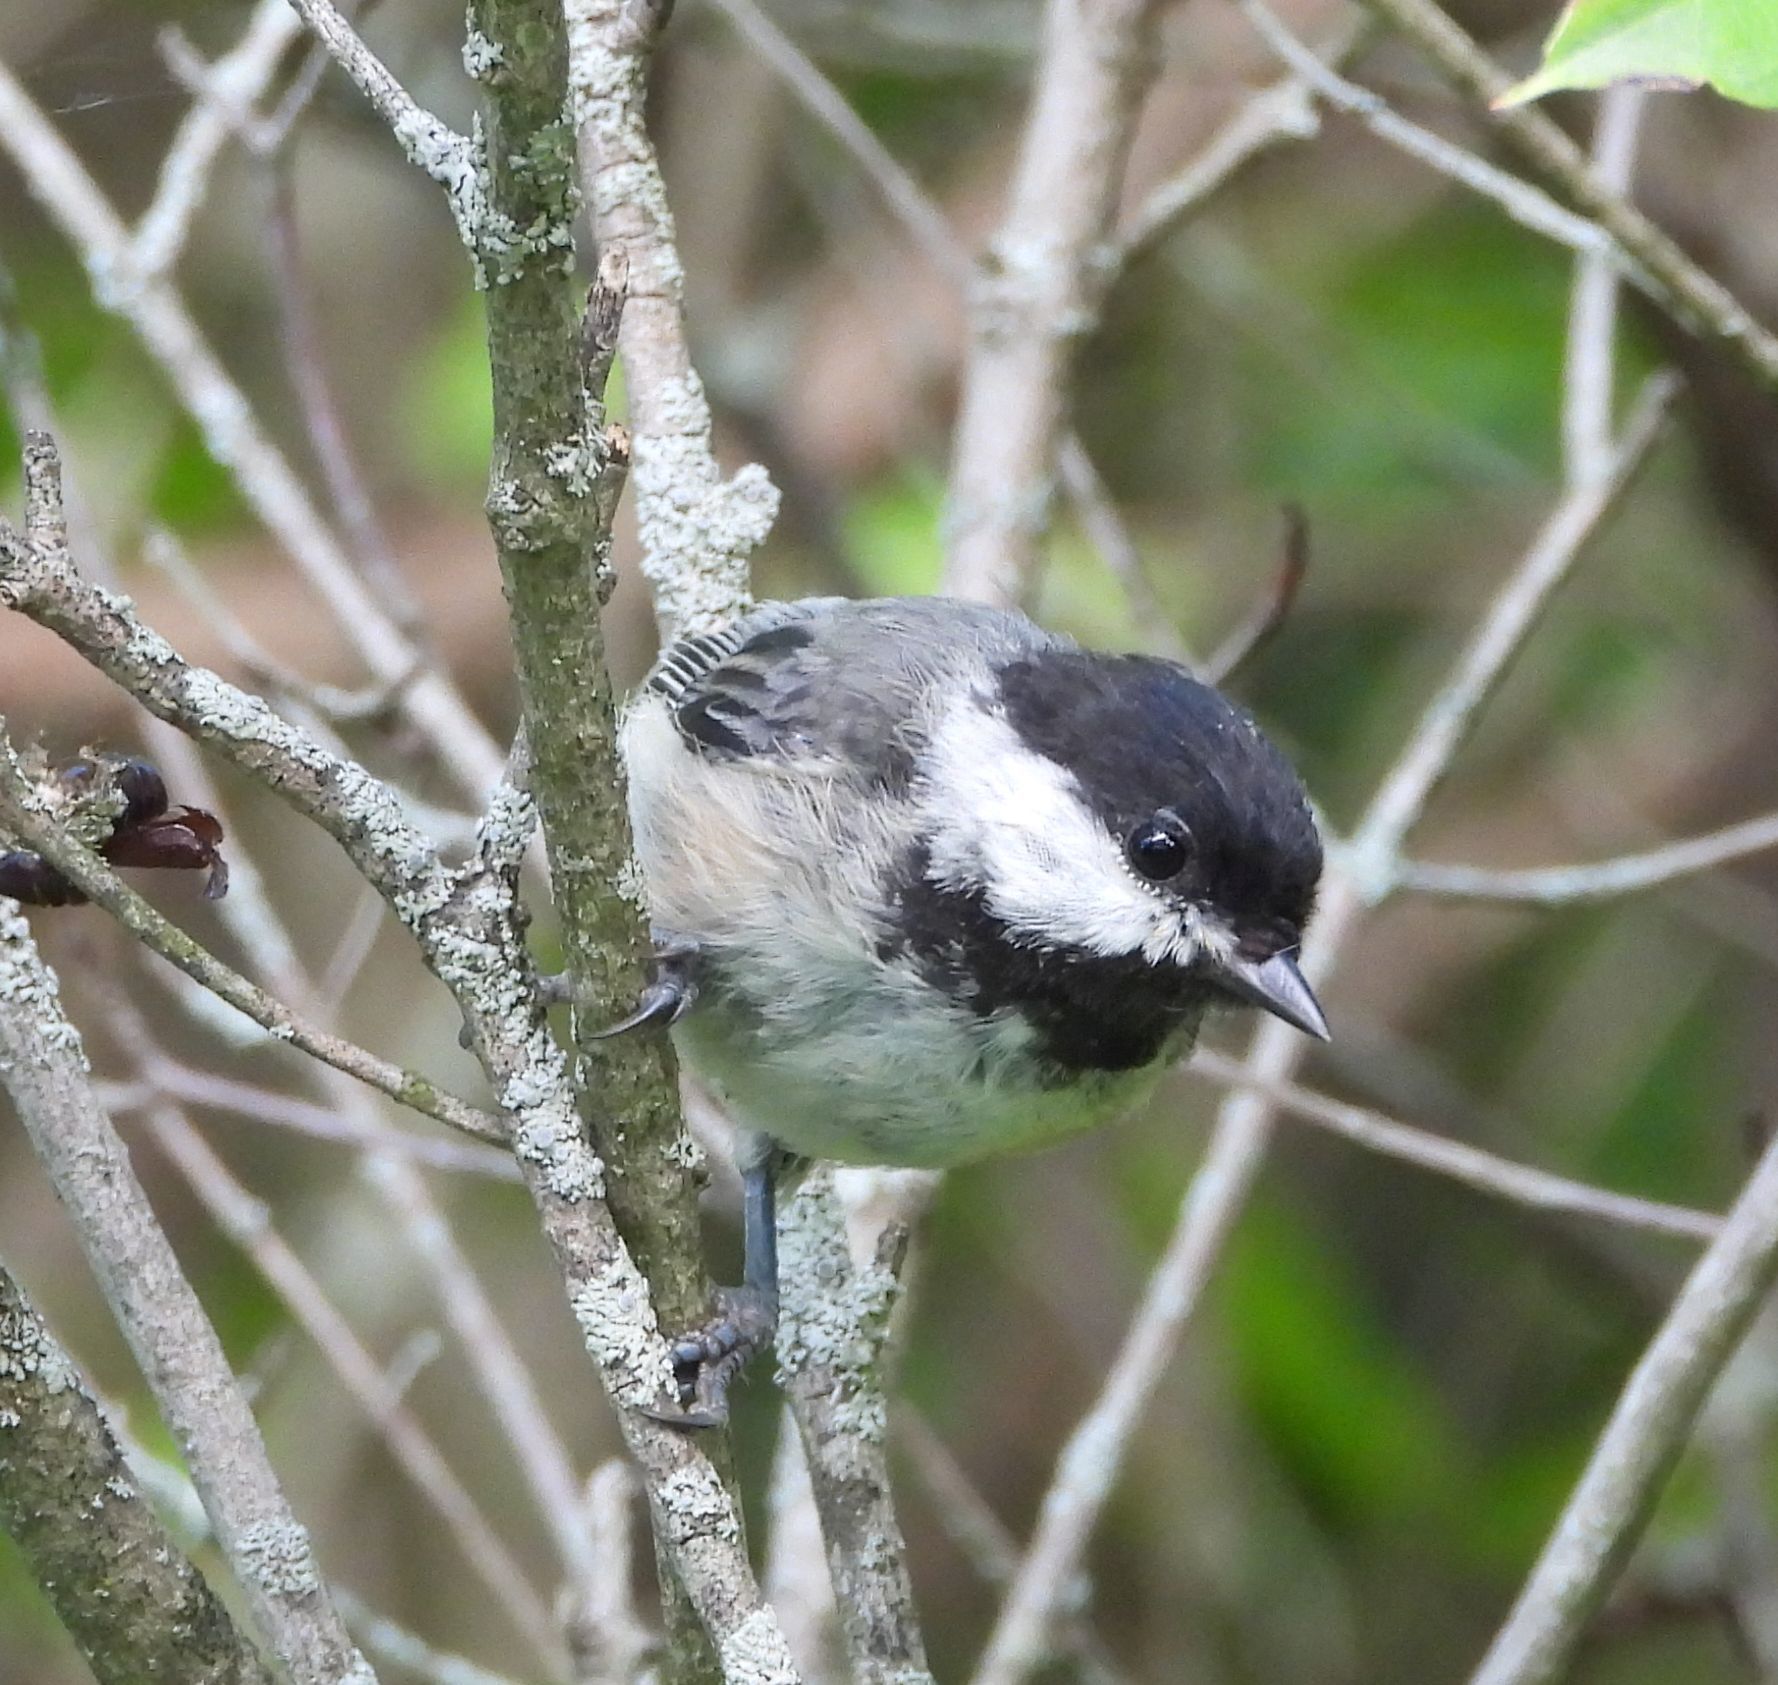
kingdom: Animalia
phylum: Chordata
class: Aves
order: Passeriformes
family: Paridae
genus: Poecile
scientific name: Poecile atricapillus
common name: Black-capped chickadee
